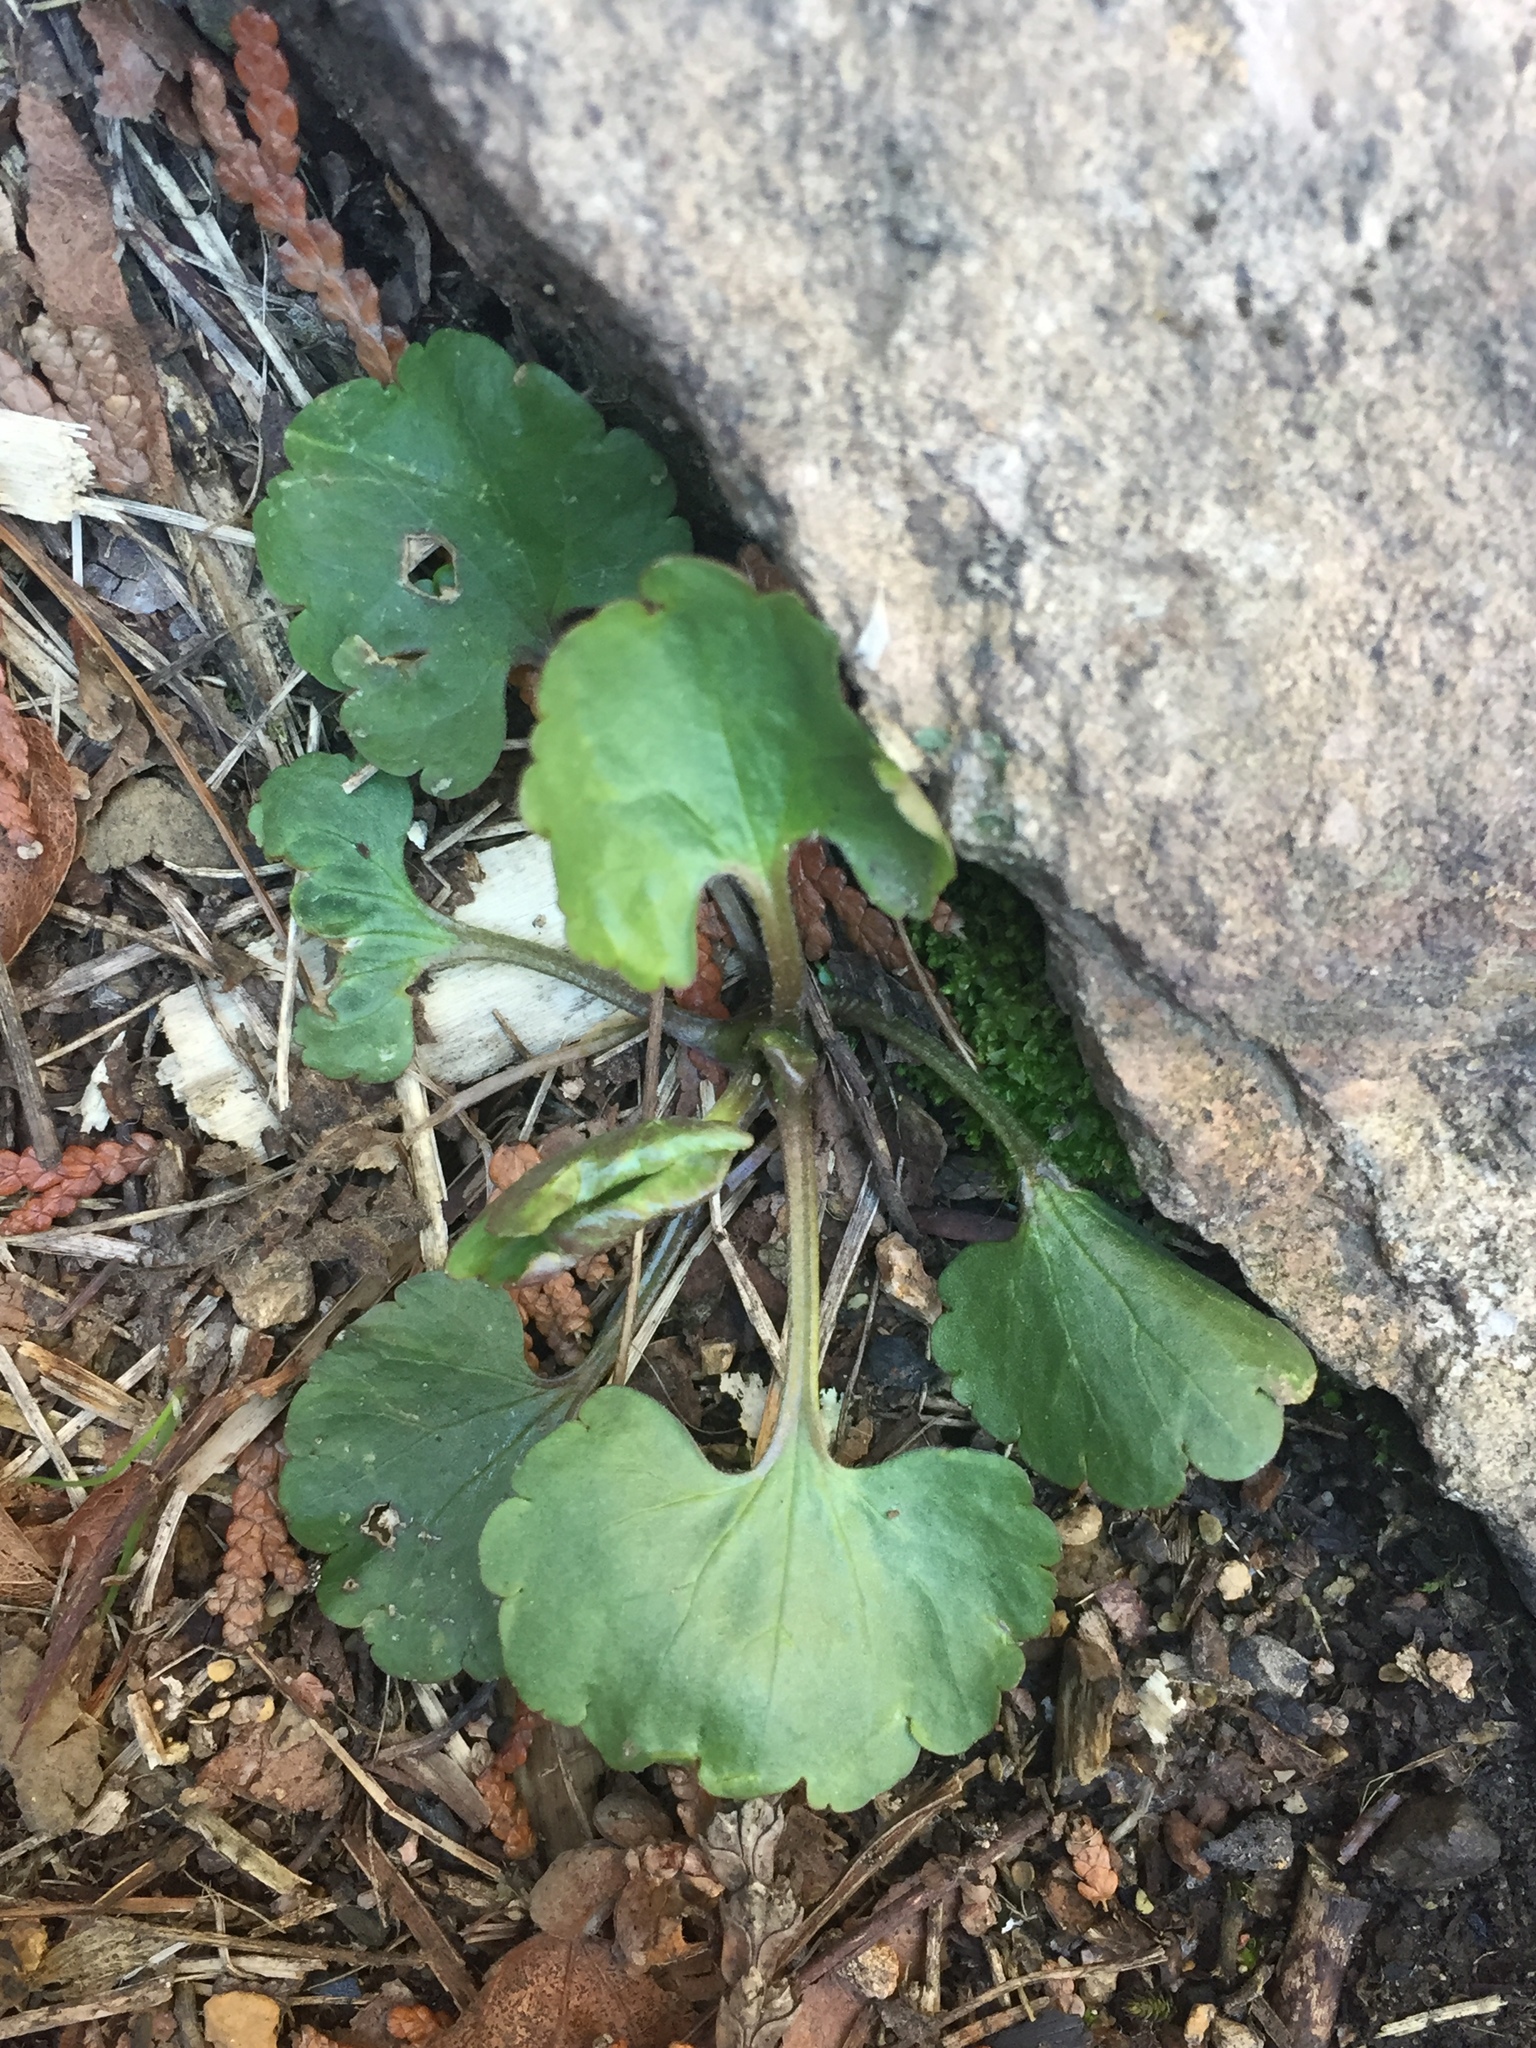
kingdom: Plantae
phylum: Tracheophyta
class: Magnoliopsida
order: Ranunculales
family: Ranunculaceae
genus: Ranunculus
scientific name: Ranunculus abortivus
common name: Early wood buttercup
